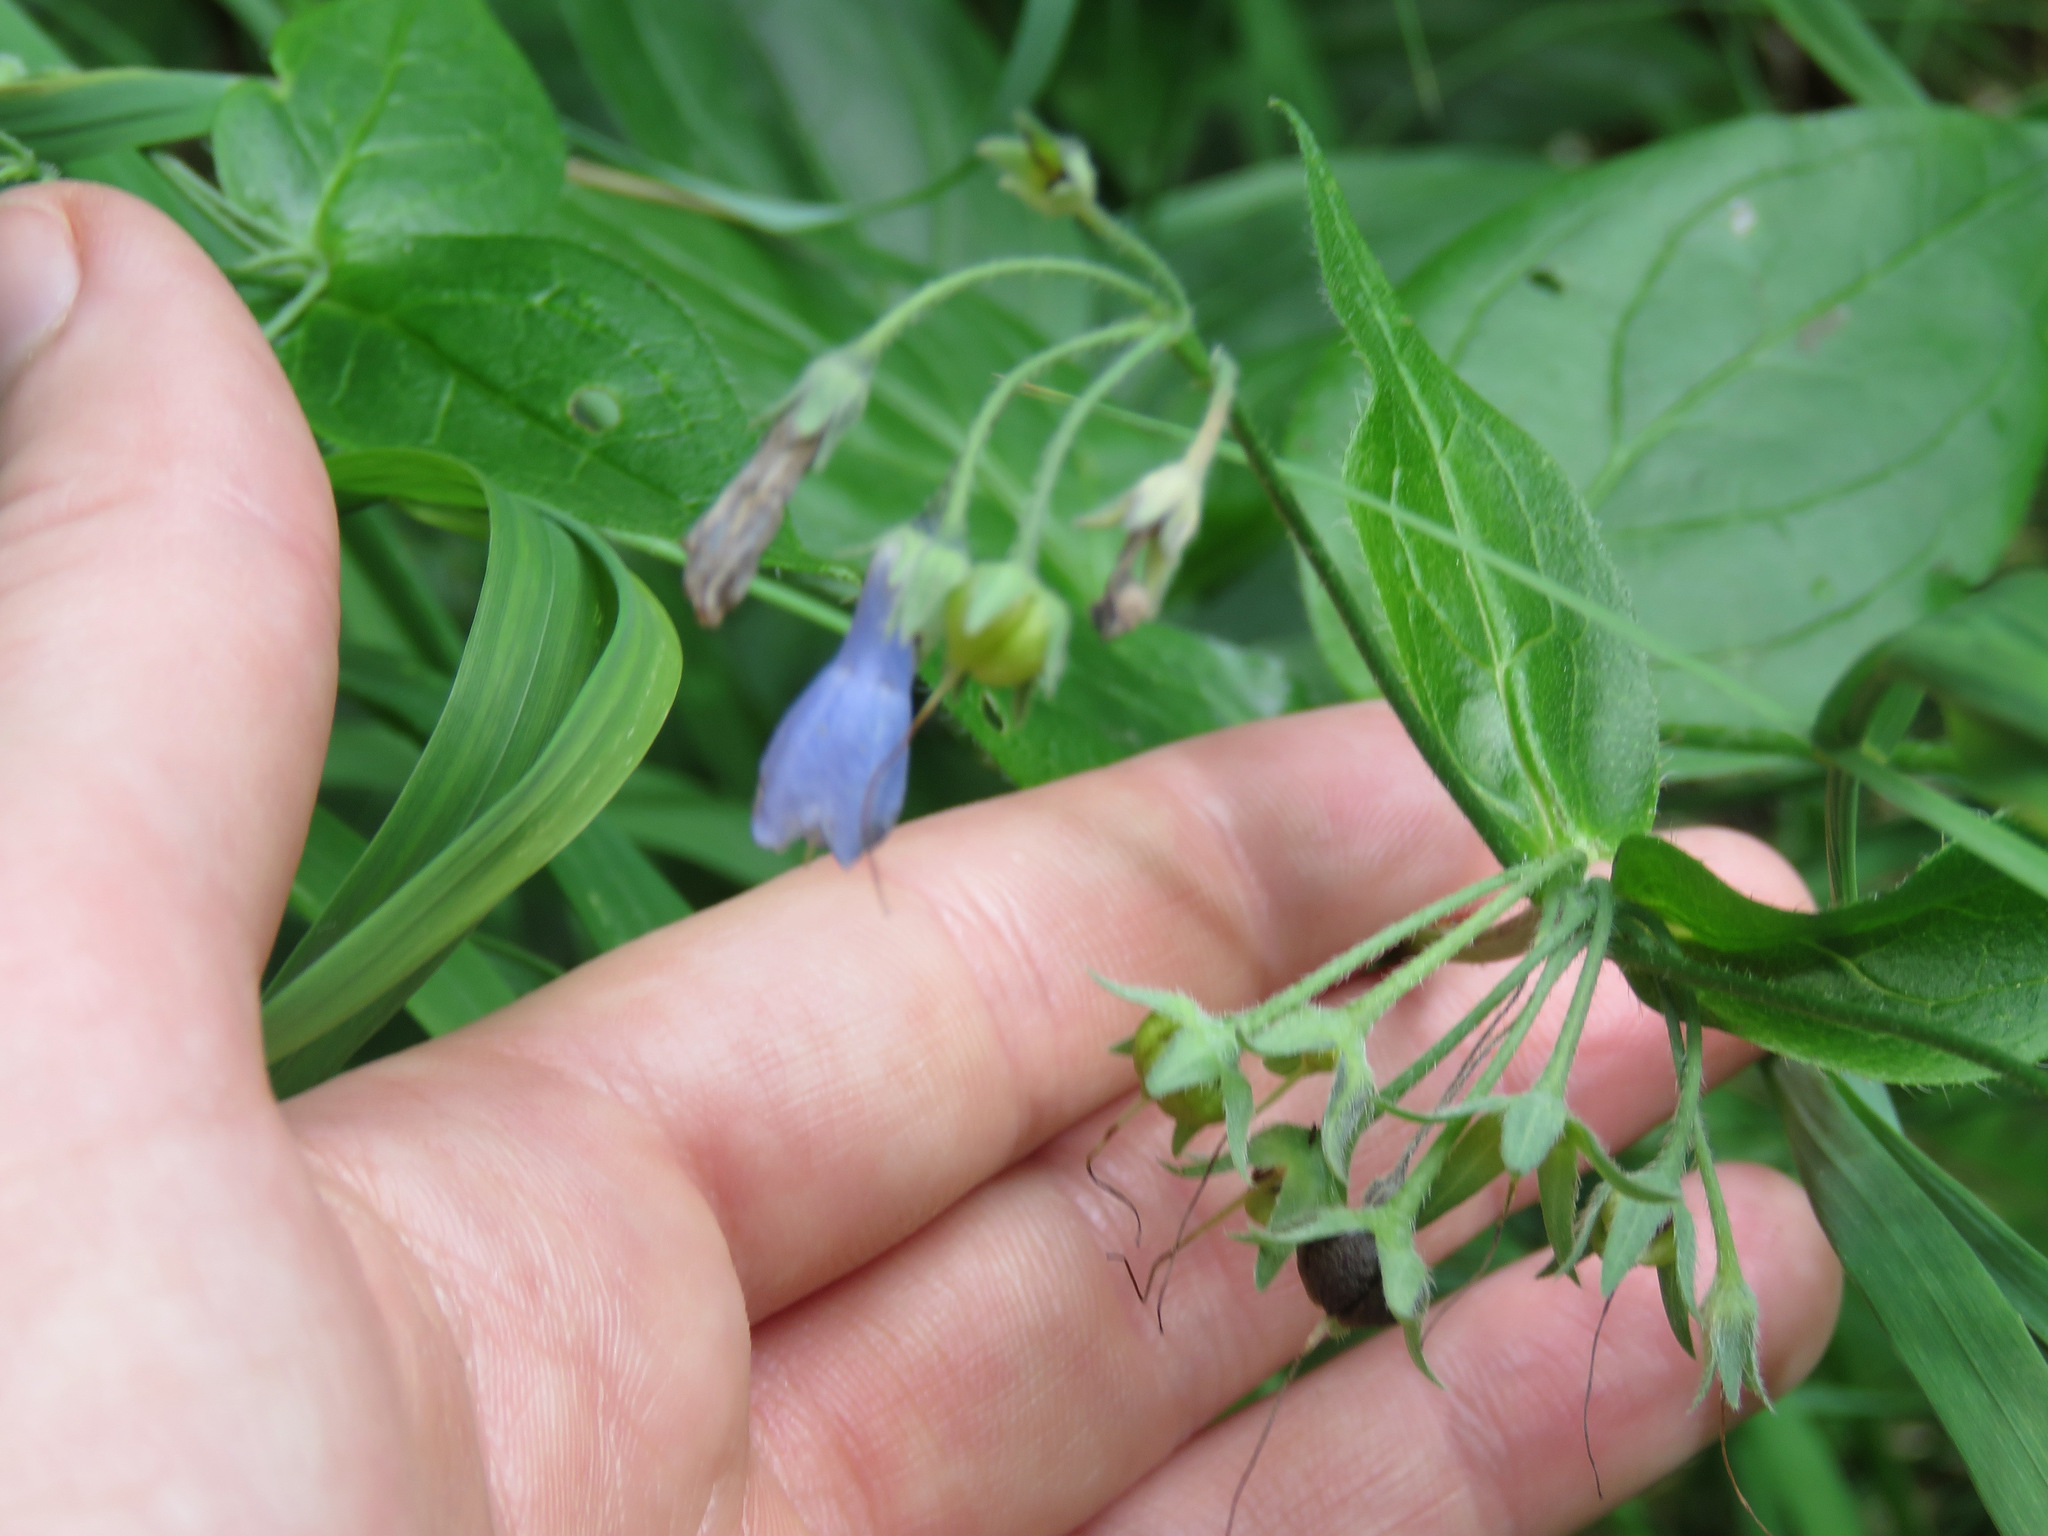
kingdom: Plantae
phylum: Tracheophyta
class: Magnoliopsida
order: Boraginales
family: Boraginaceae
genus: Mertensia
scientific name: Mertensia paniculata
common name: Panicled bluebells
